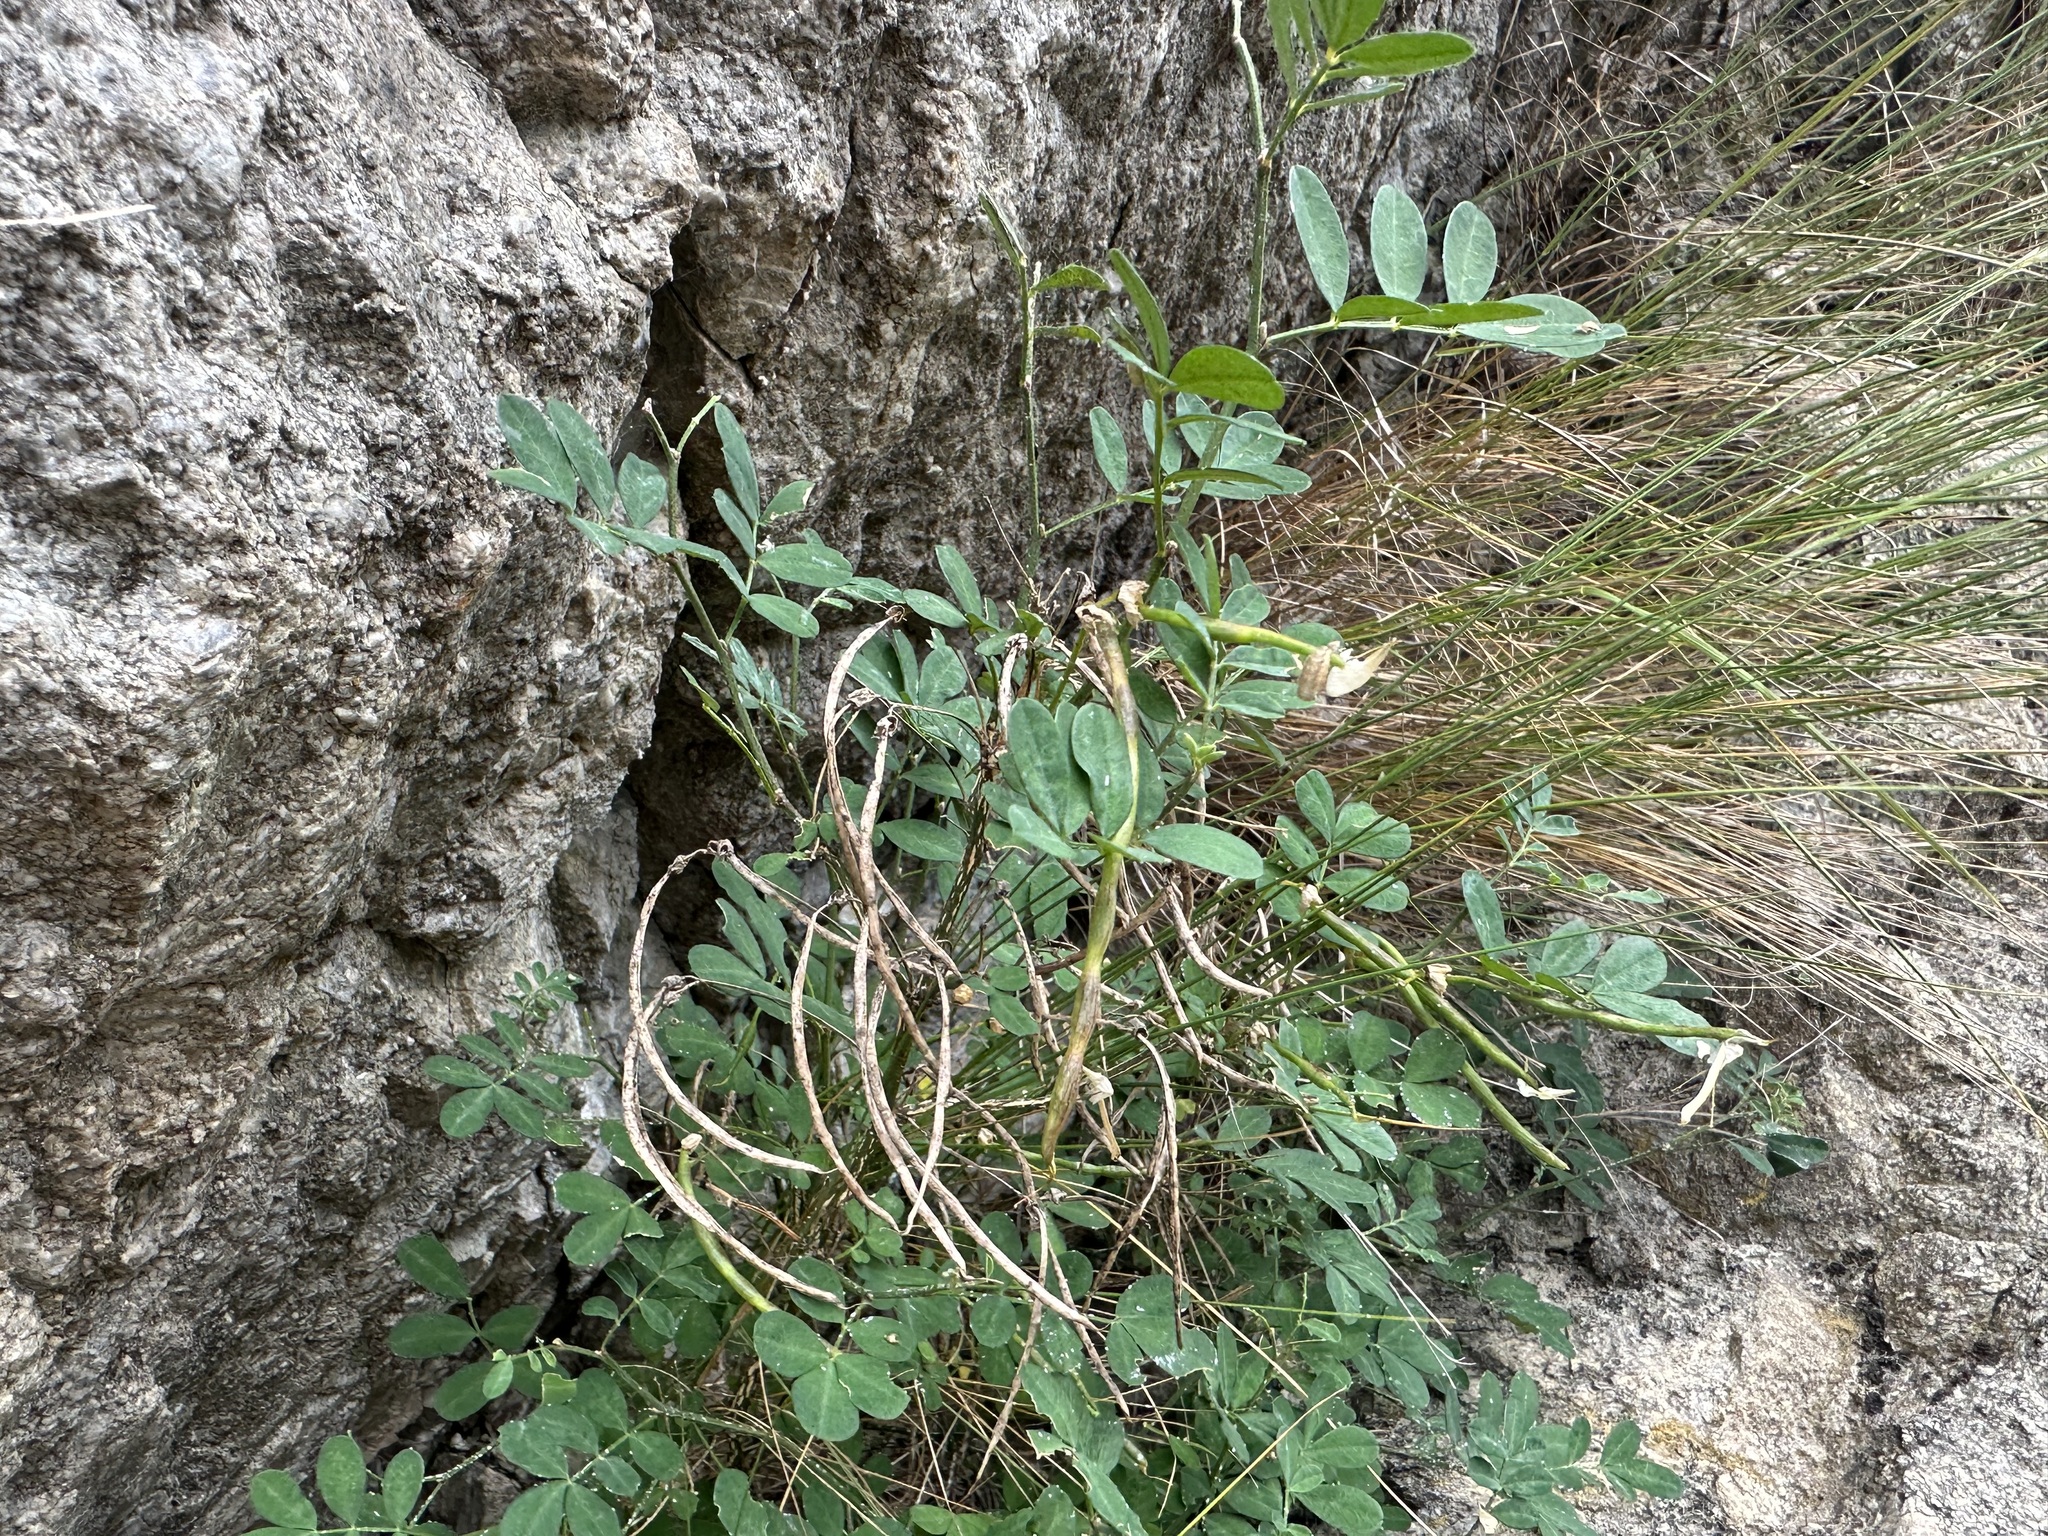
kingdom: Plantae
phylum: Tracheophyta
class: Magnoliopsida
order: Fabales
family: Fabaceae
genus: Hippocrepis
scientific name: Hippocrepis emerus
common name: Scorpion senna
